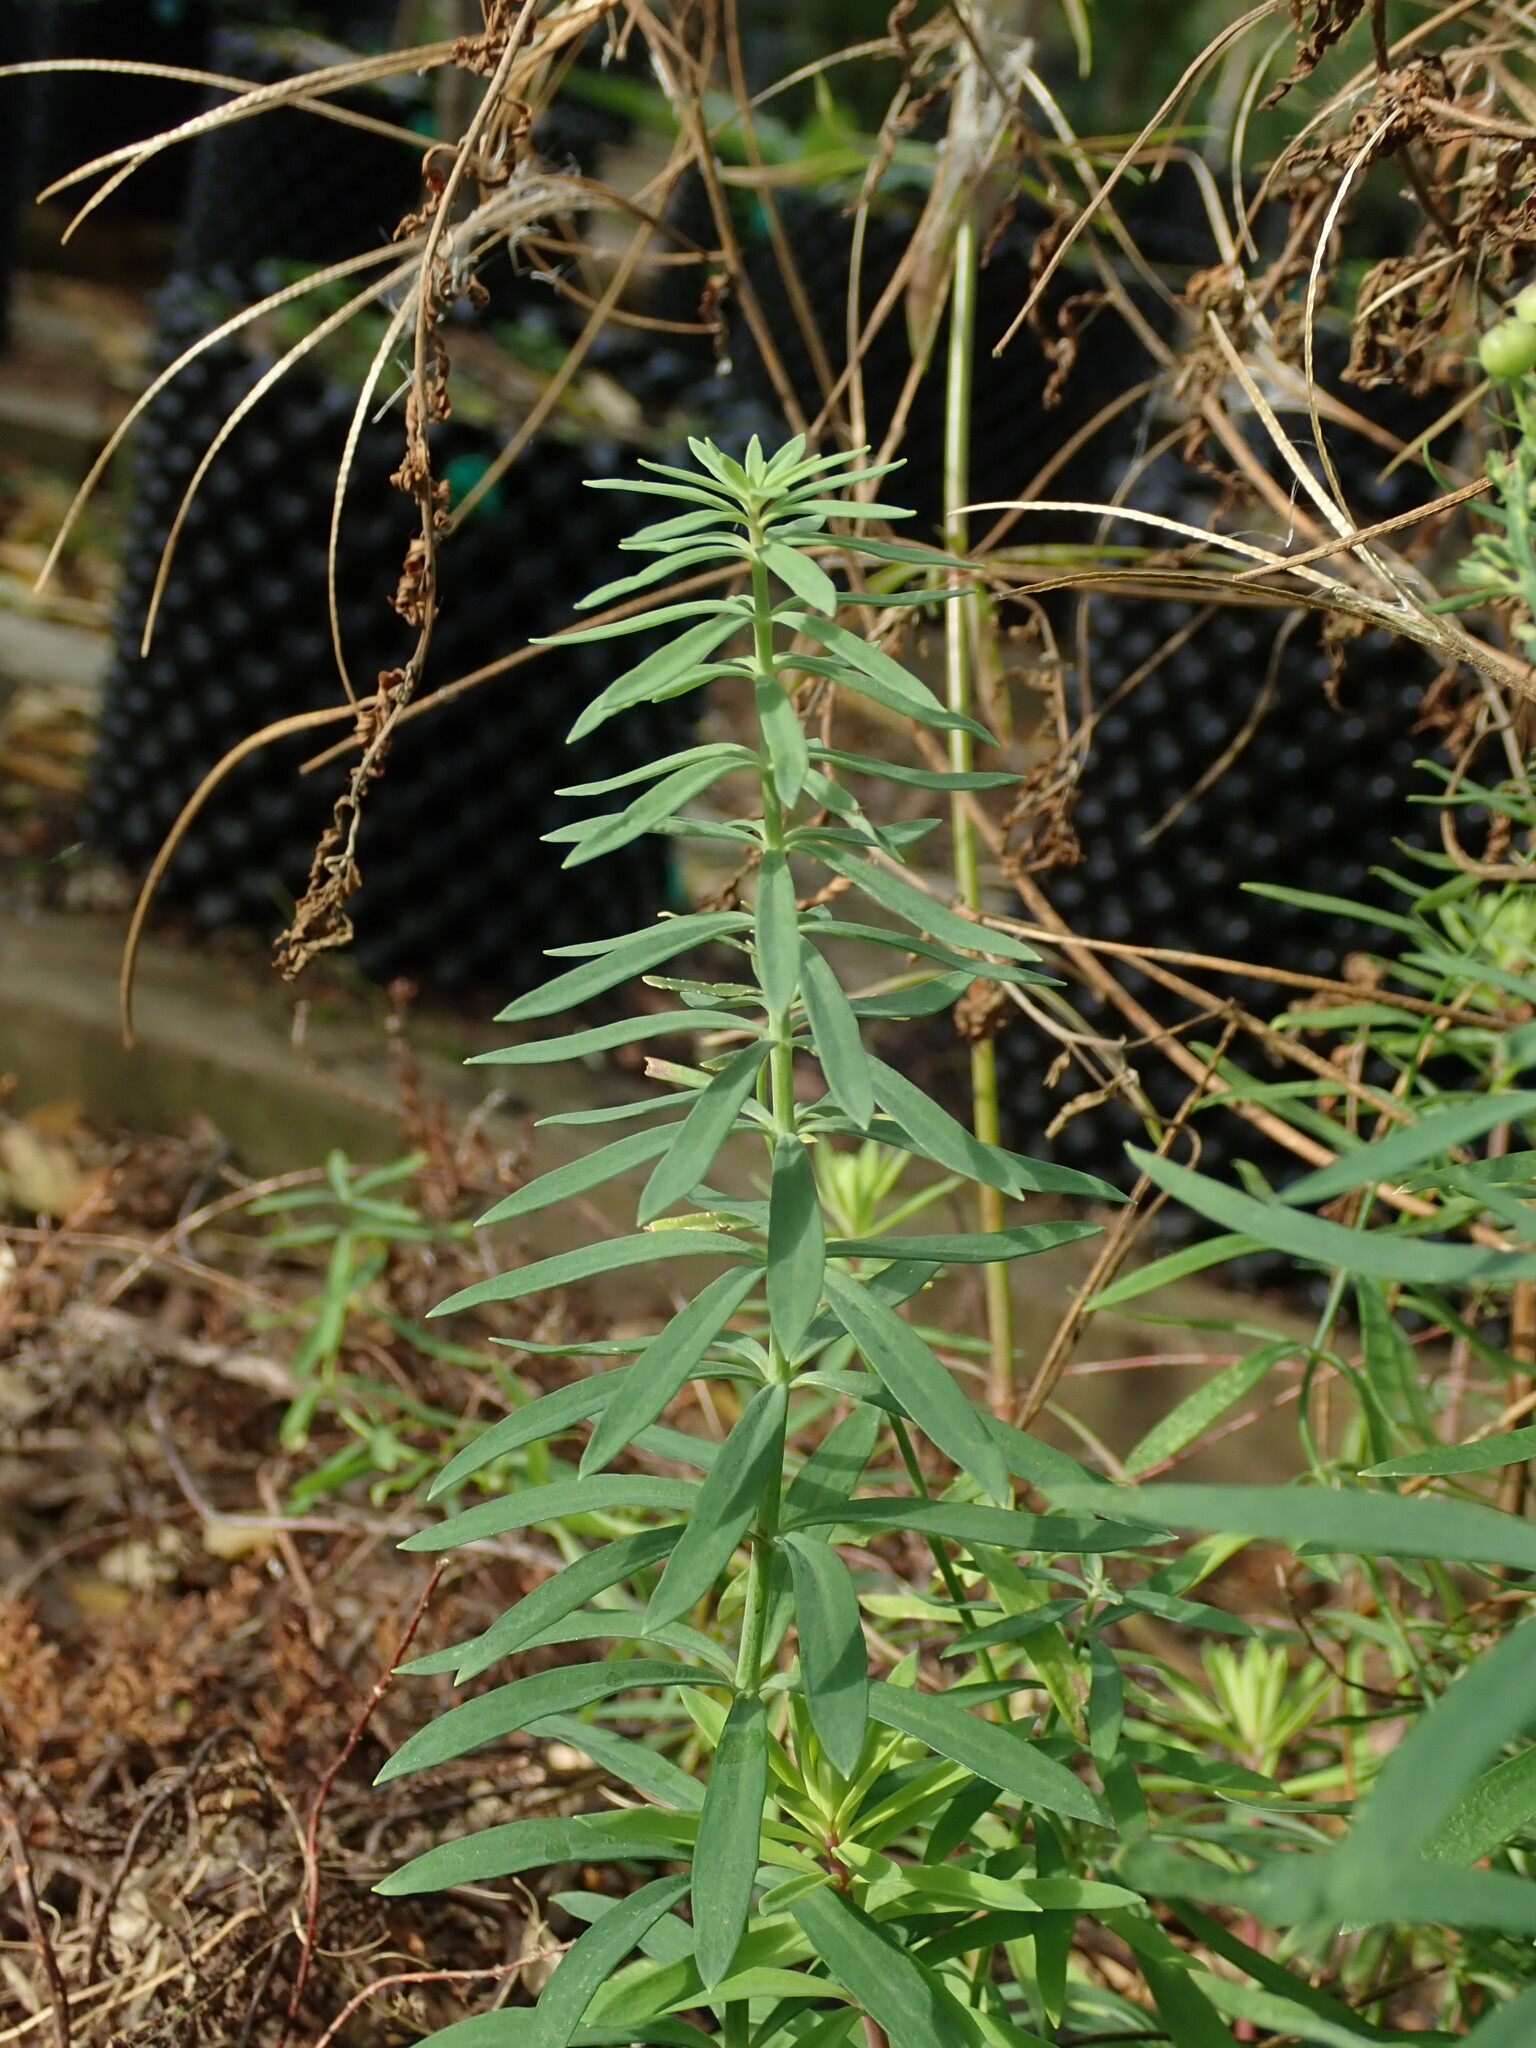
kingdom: Plantae
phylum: Tracheophyta
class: Magnoliopsida
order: Lamiales
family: Plantaginaceae
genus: Linaria
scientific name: Linaria purpurea
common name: Purple toadflax
